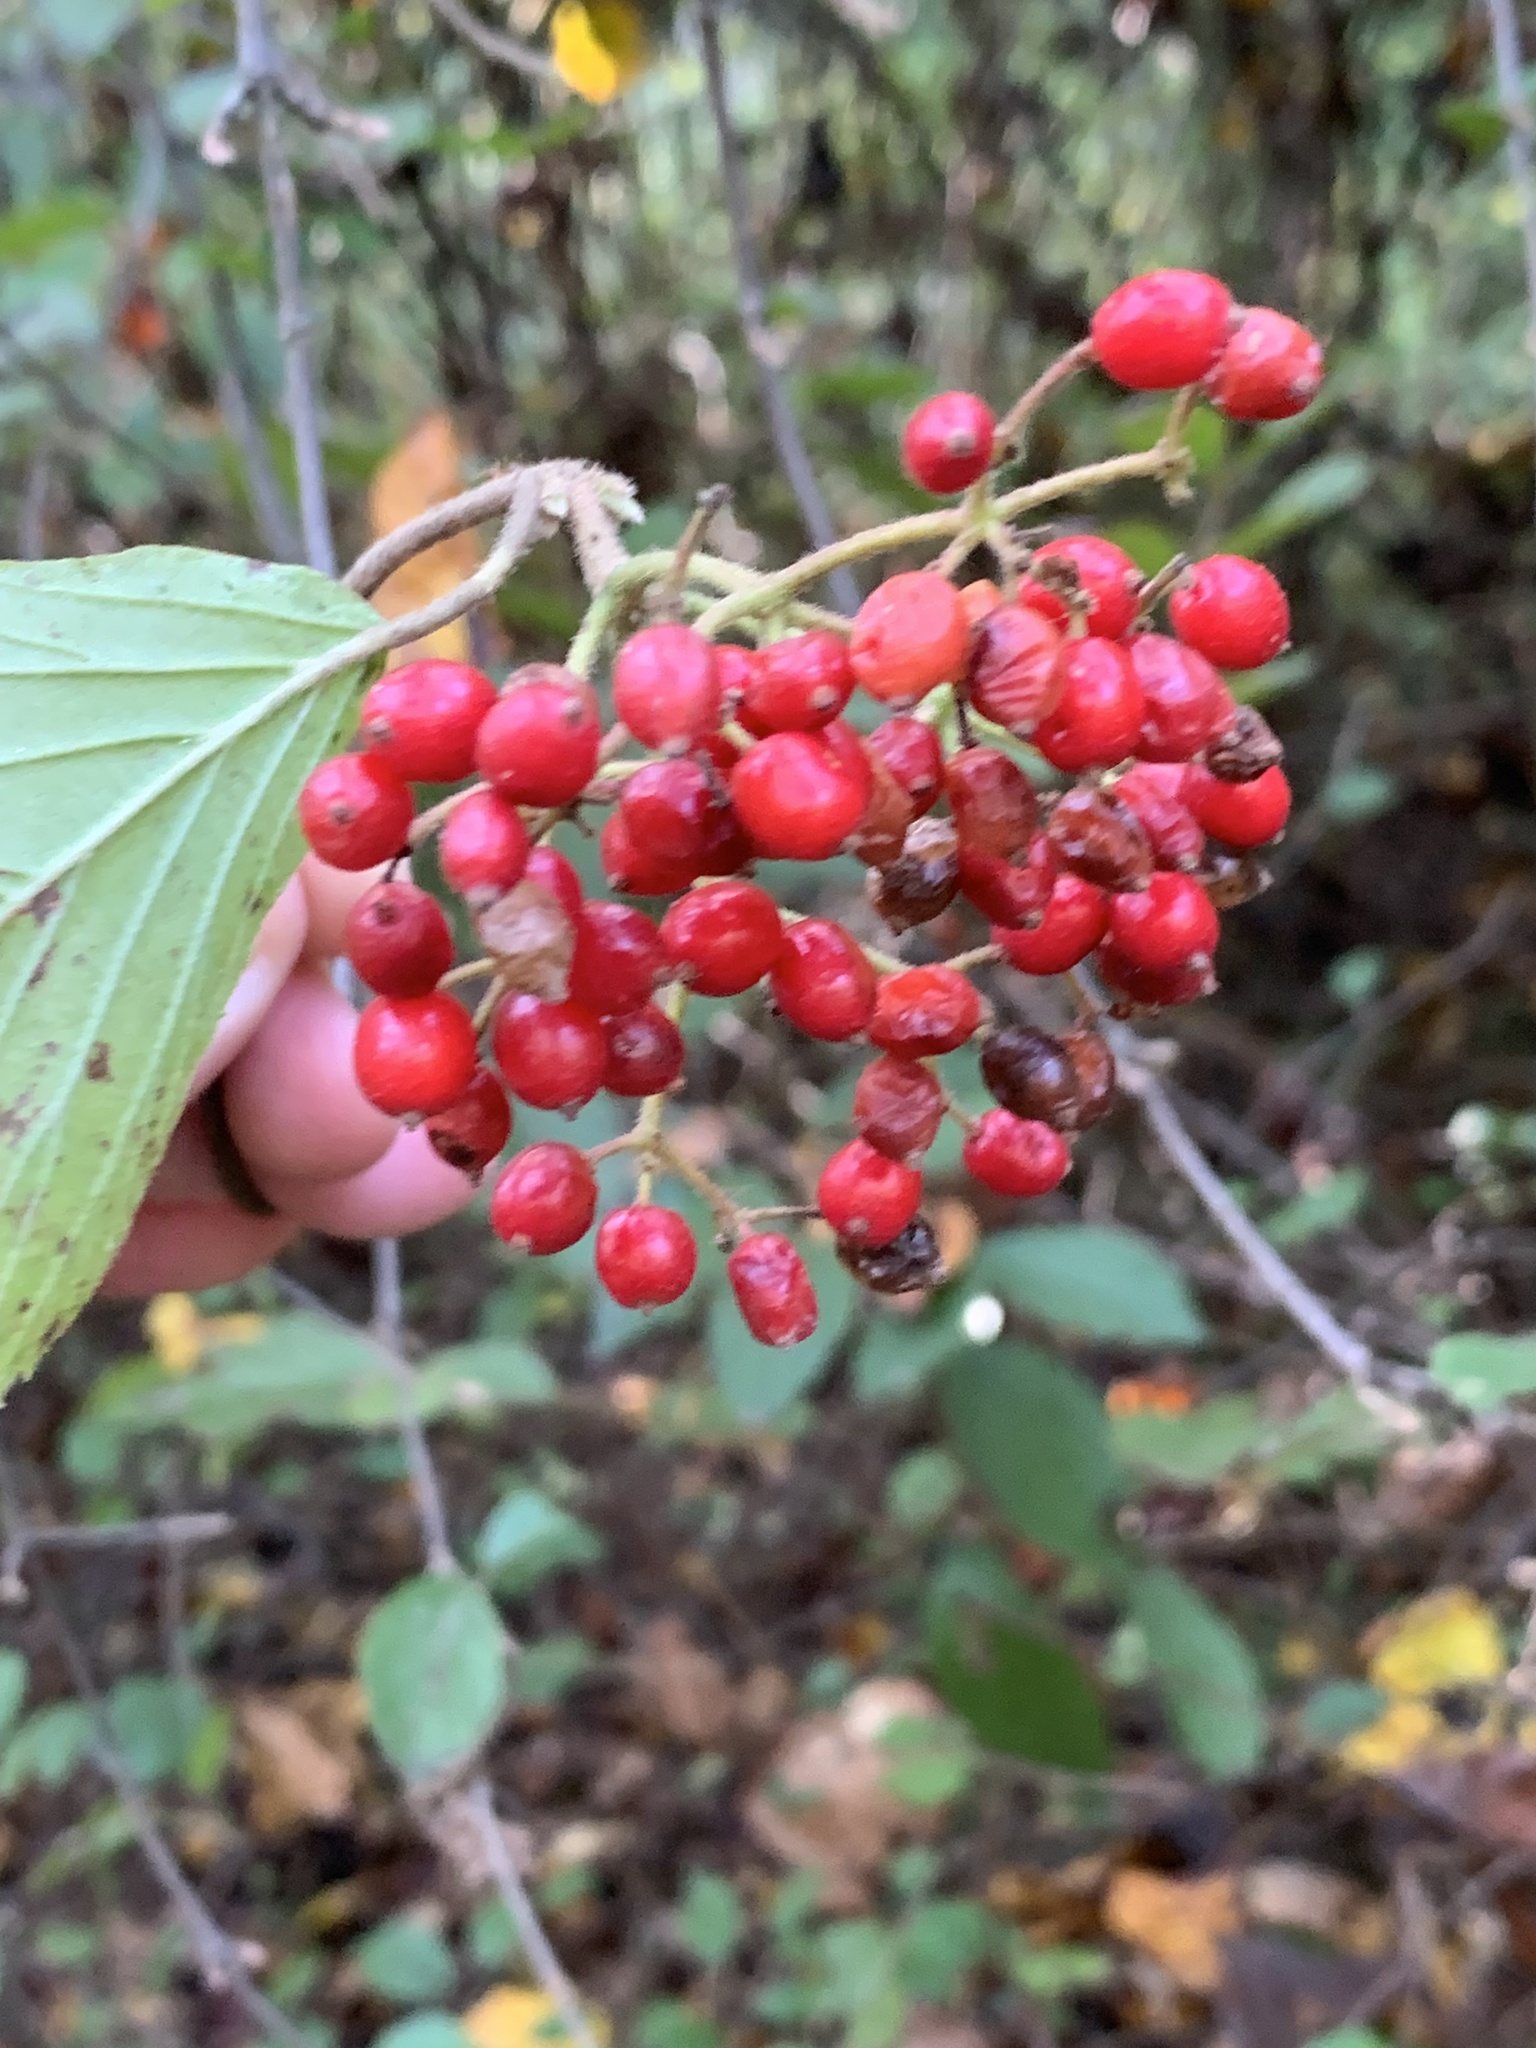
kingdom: Plantae
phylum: Tracheophyta
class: Magnoliopsida
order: Dipsacales
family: Viburnaceae
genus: Viburnum
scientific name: Viburnum dilatatum
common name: Linden arrowwood
